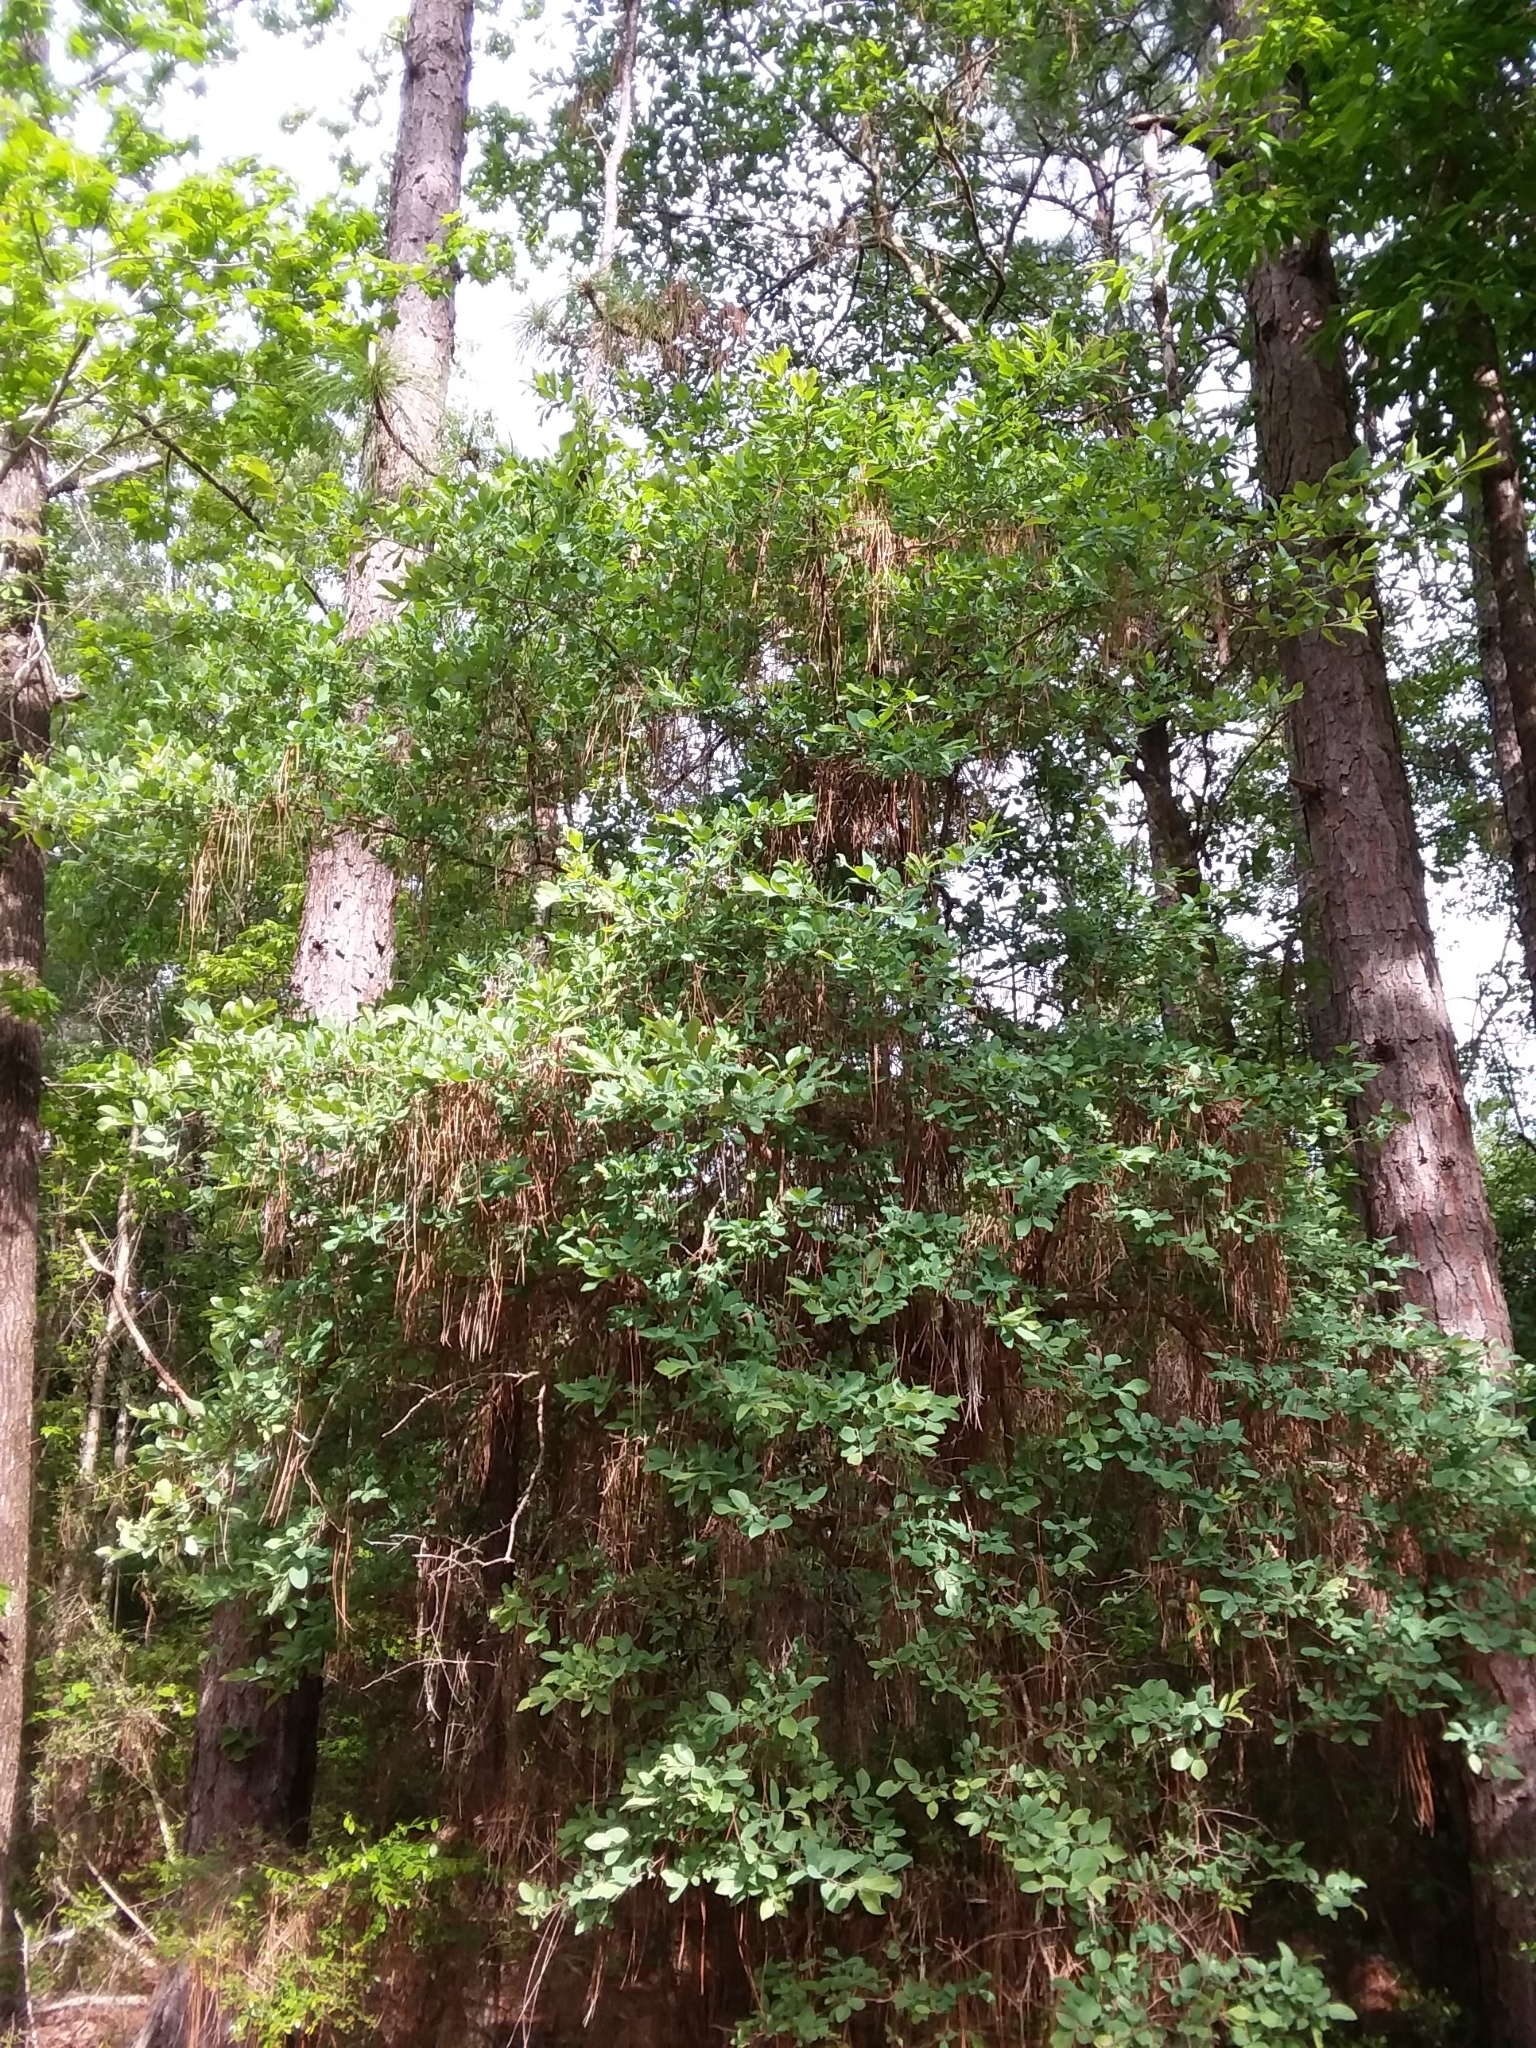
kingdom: Plantae
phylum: Tracheophyta
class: Magnoliopsida
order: Ericales
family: Ericaceae
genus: Vaccinium
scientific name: Vaccinium arboreum
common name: Farkleberry
